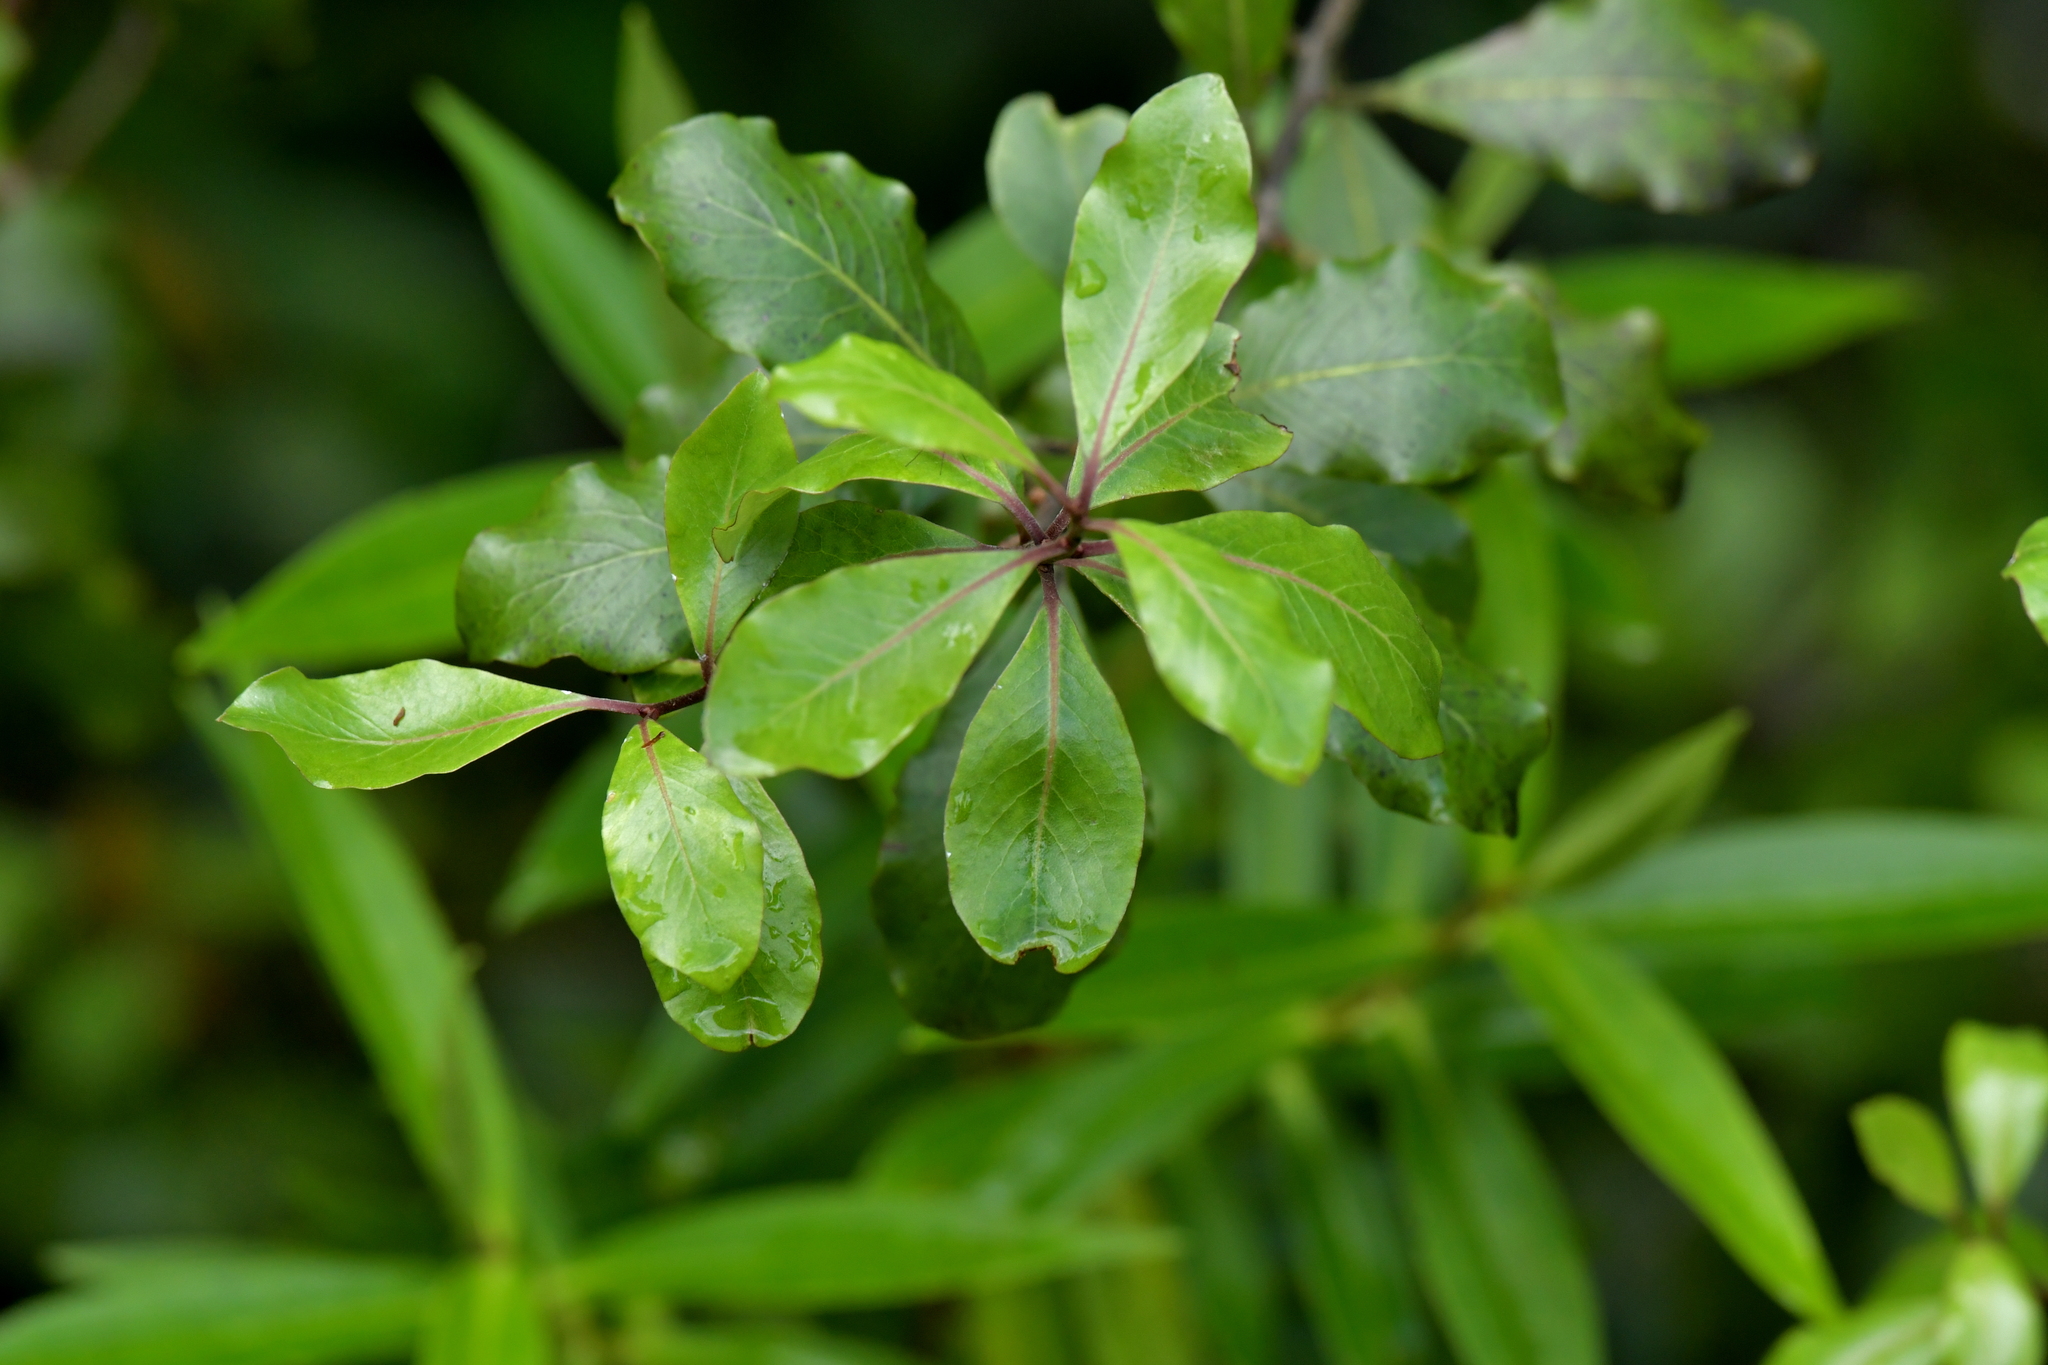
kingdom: Plantae
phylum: Tracheophyta
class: Magnoliopsida
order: Apiales
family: Pittosporaceae
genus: Pittosporum
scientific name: Pittosporum tenuifolium
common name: Kohuhu
